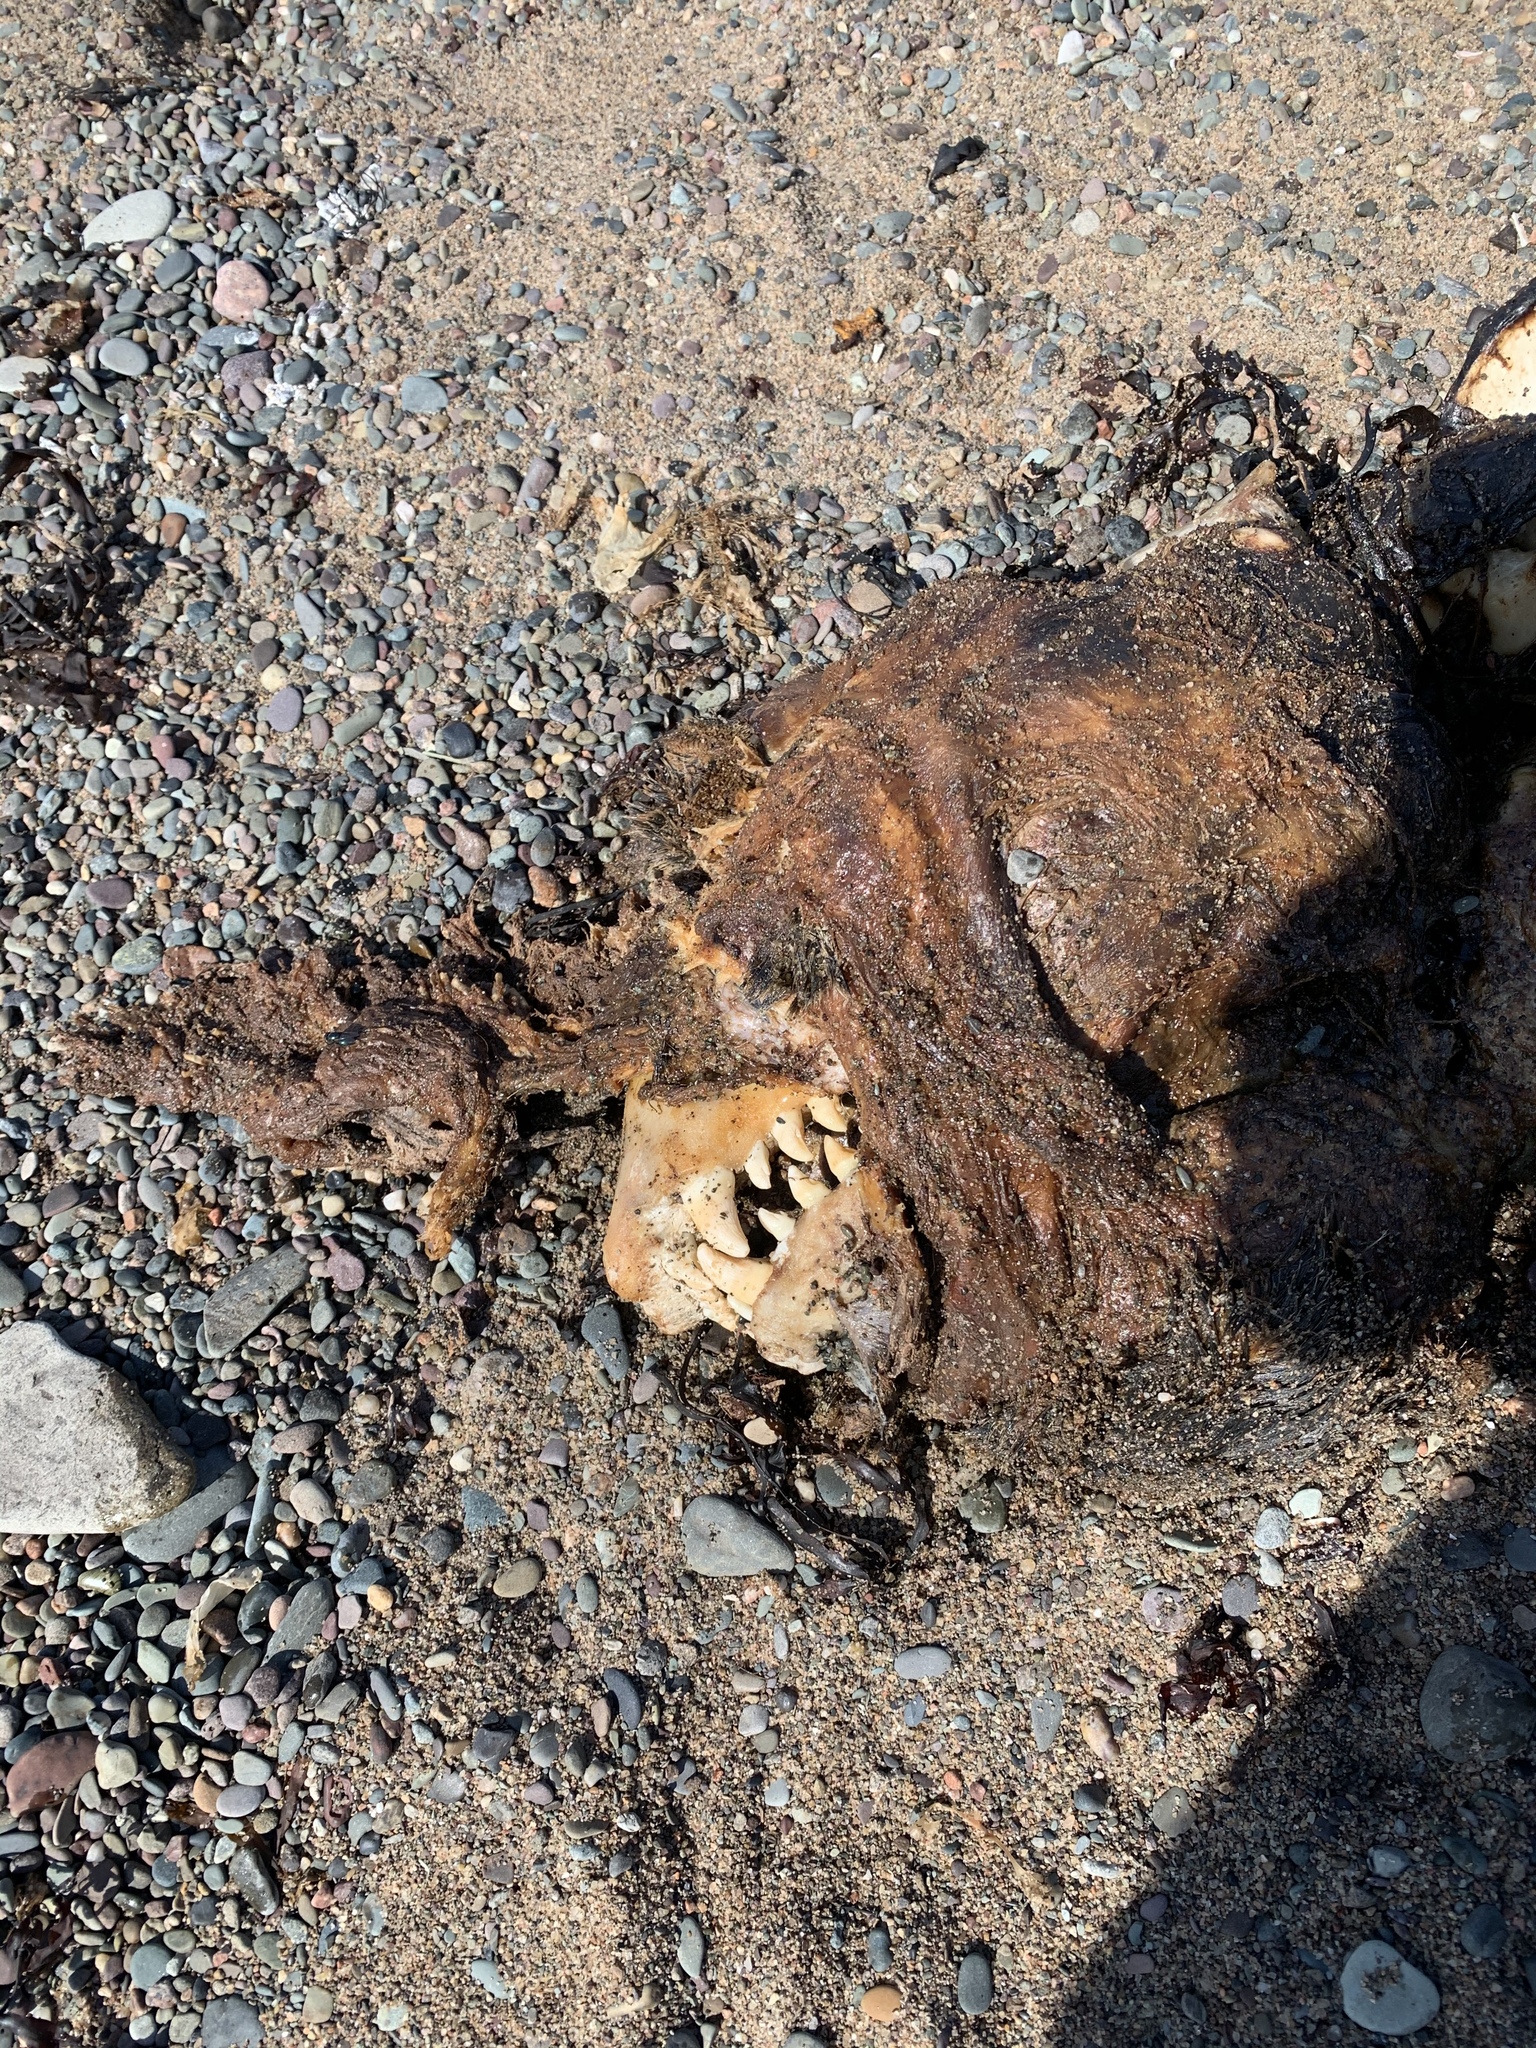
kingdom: Animalia
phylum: Chordata
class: Mammalia
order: Carnivora
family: Phocidae
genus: Halichoerus
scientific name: Halichoerus grypus
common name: Grey seal
